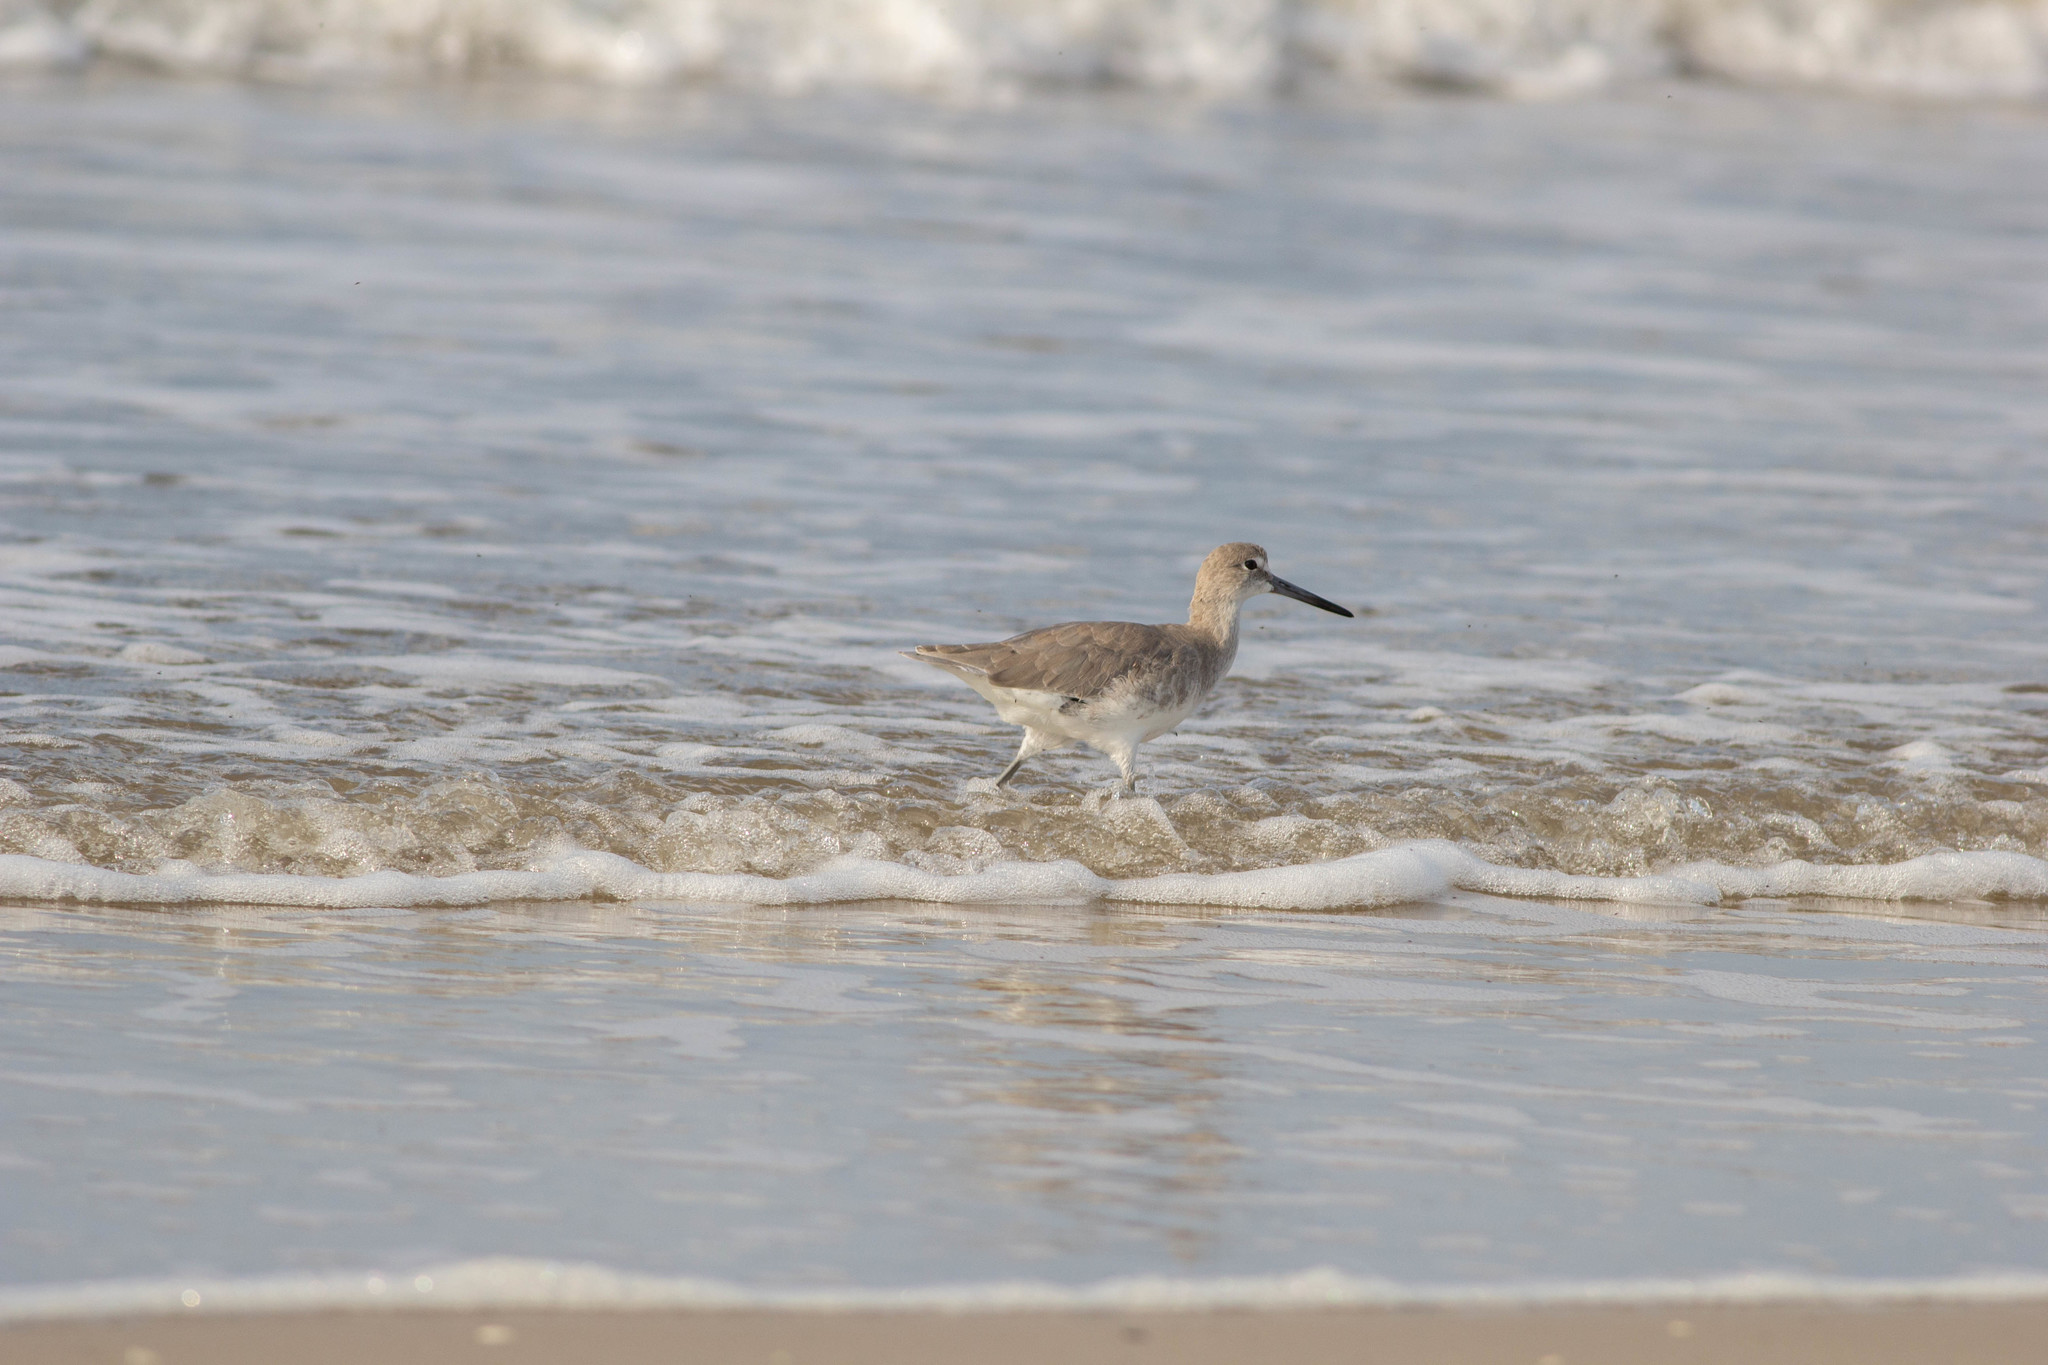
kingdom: Animalia
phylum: Chordata
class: Aves
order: Charadriiformes
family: Scolopacidae
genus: Tringa
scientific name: Tringa semipalmata
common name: Willet
